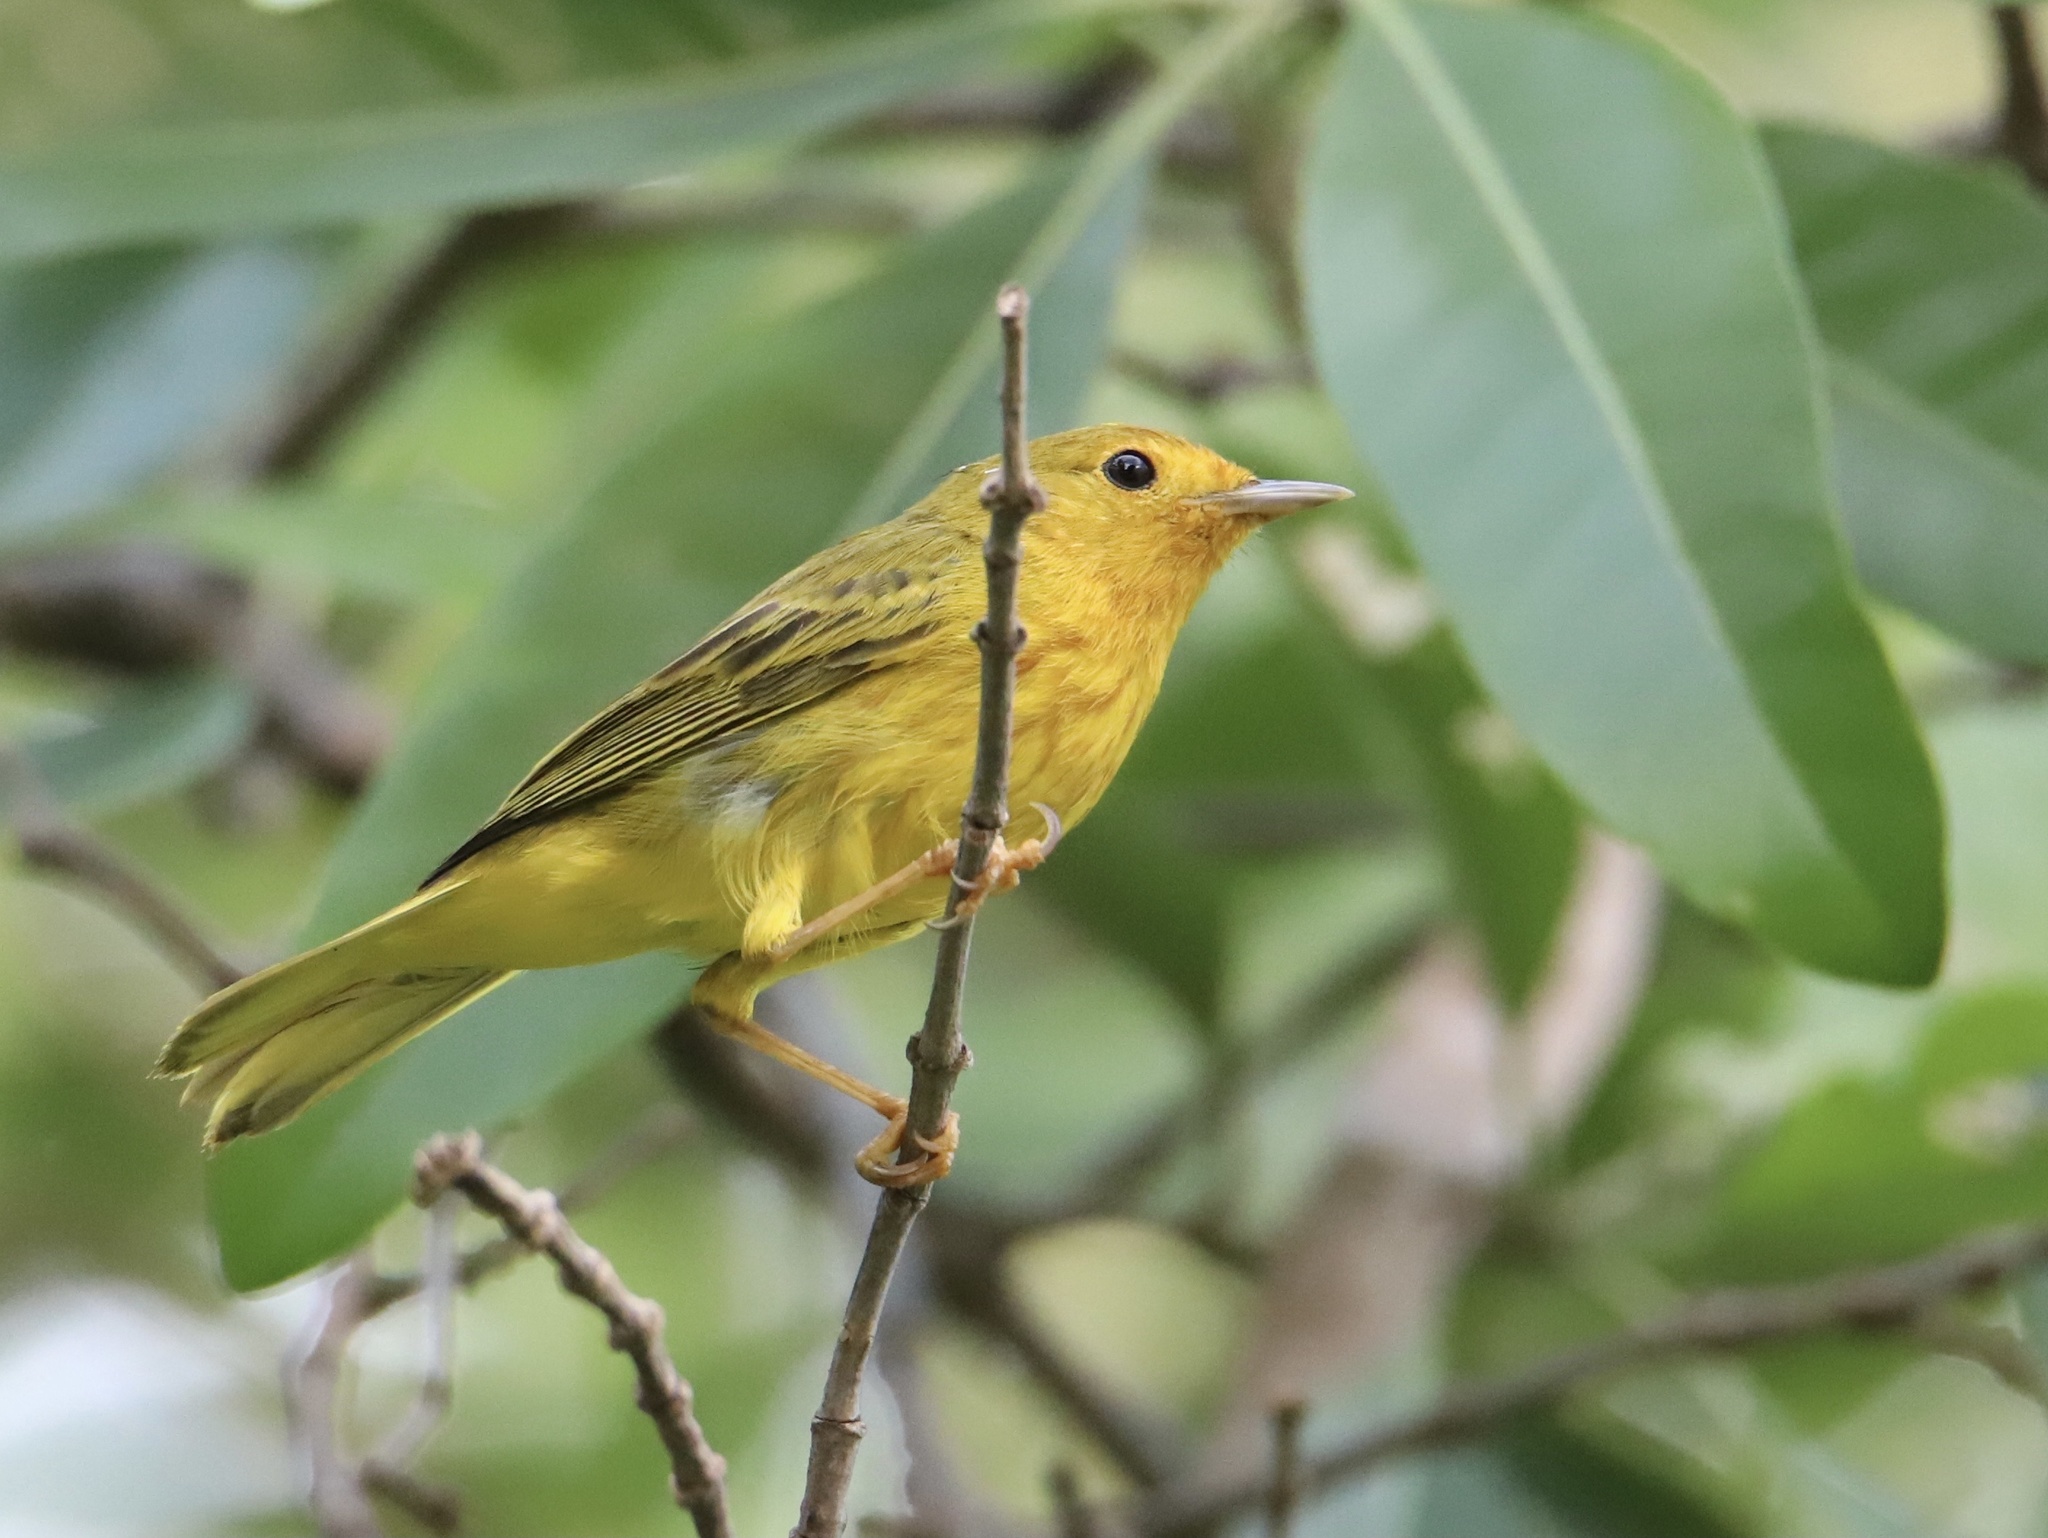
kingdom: Animalia
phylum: Chordata
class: Aves
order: Passeriformes
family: Parulidae
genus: Setophaga
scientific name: Setophaga petechia
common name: Yellow warbler
